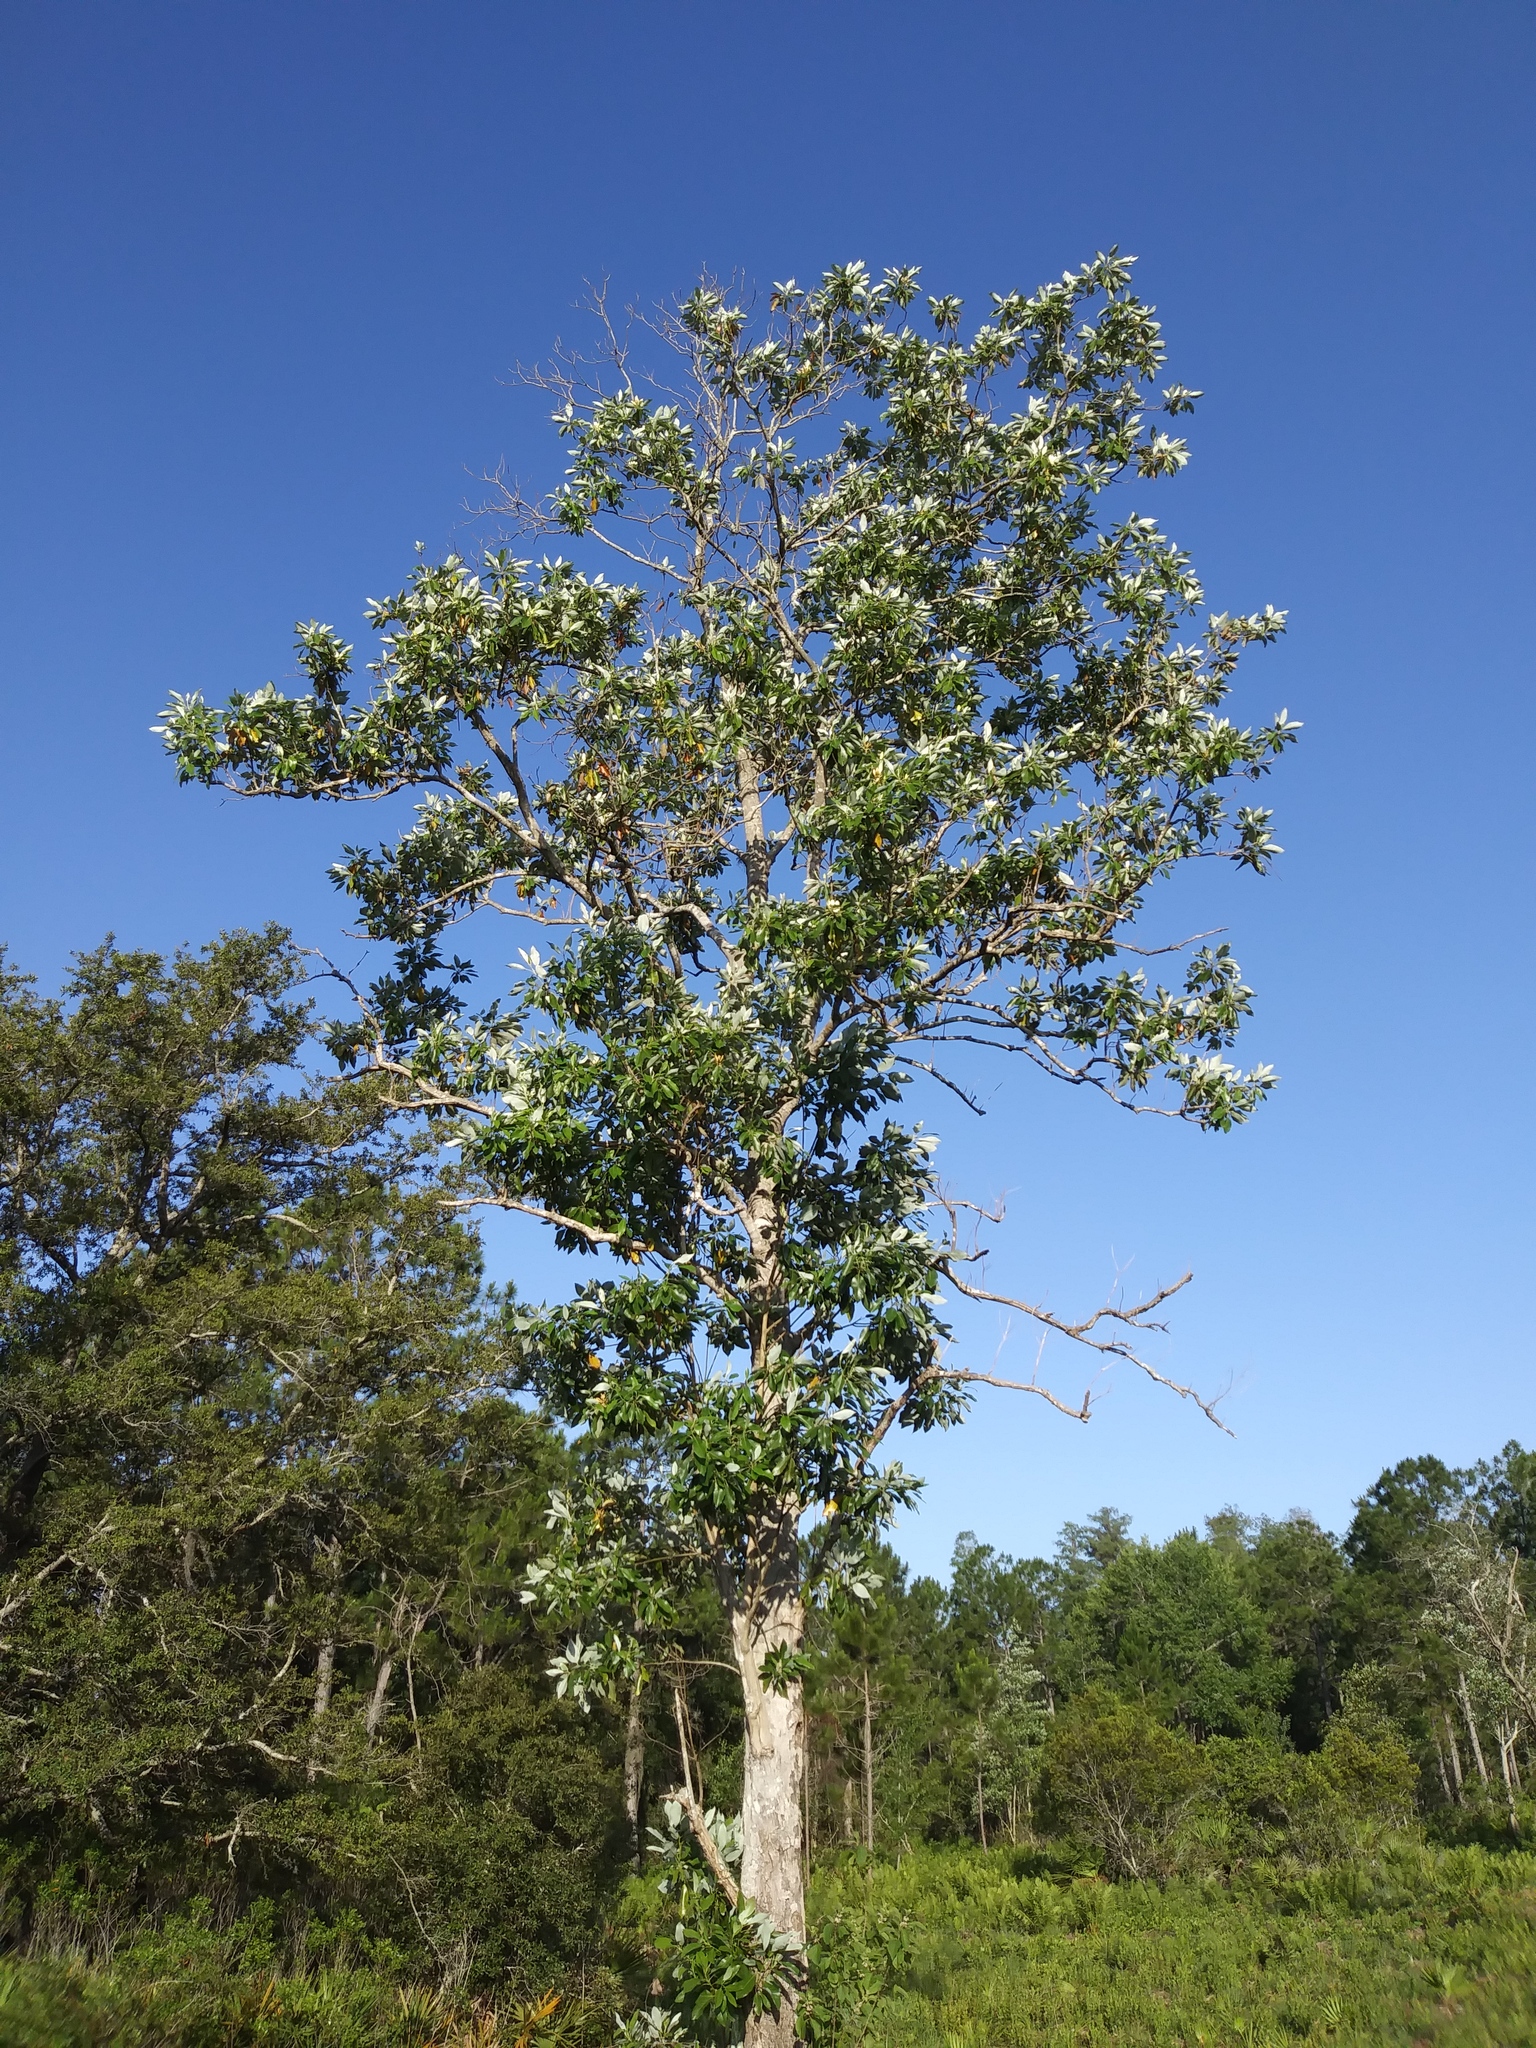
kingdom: Plantae
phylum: Tracheophyta
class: Magnoliopsida
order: Magnoliales
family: Magnoliaceae
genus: Magnolia
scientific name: Magnolia virginiana
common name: Swamp bay
